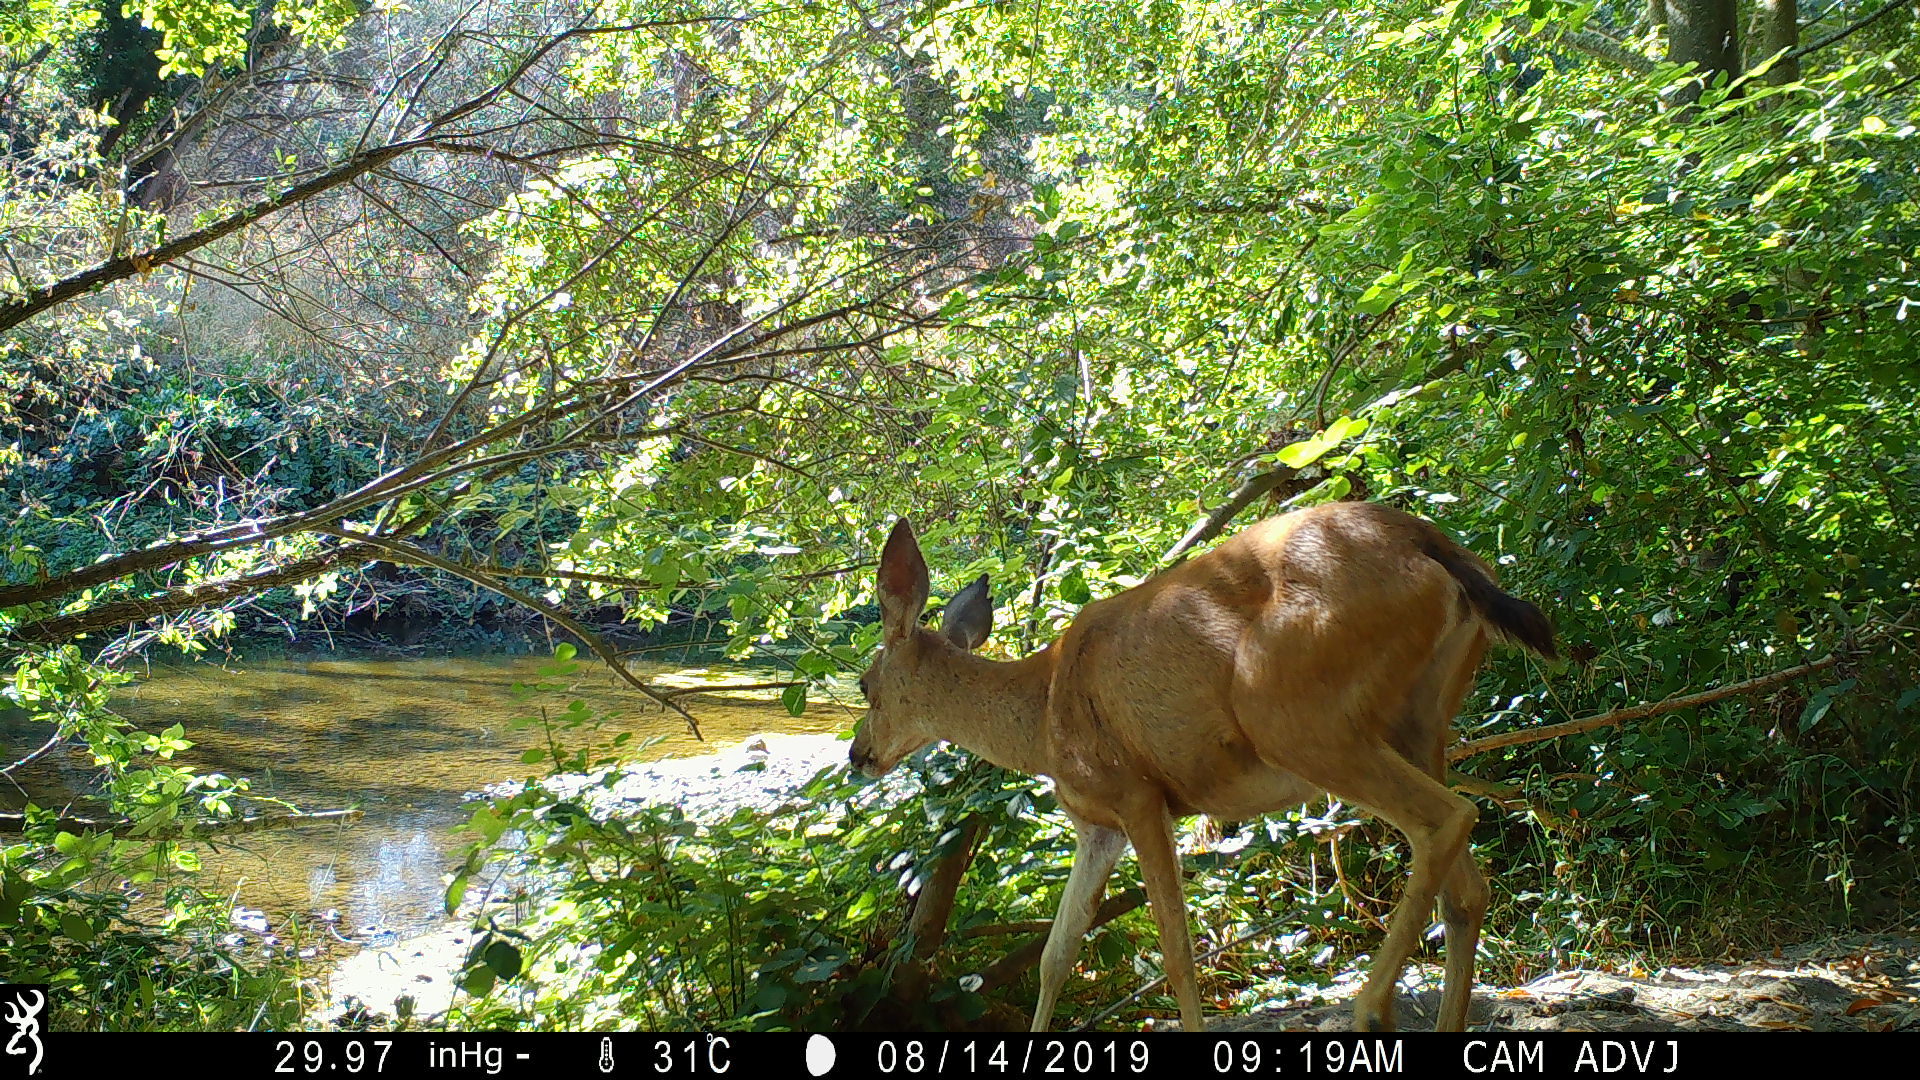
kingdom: Animalia
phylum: Chordata
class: Mammalia
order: Artiodactyla
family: Cervidae
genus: Odocoileus
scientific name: Odocoileus hemionus
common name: Mule deer
